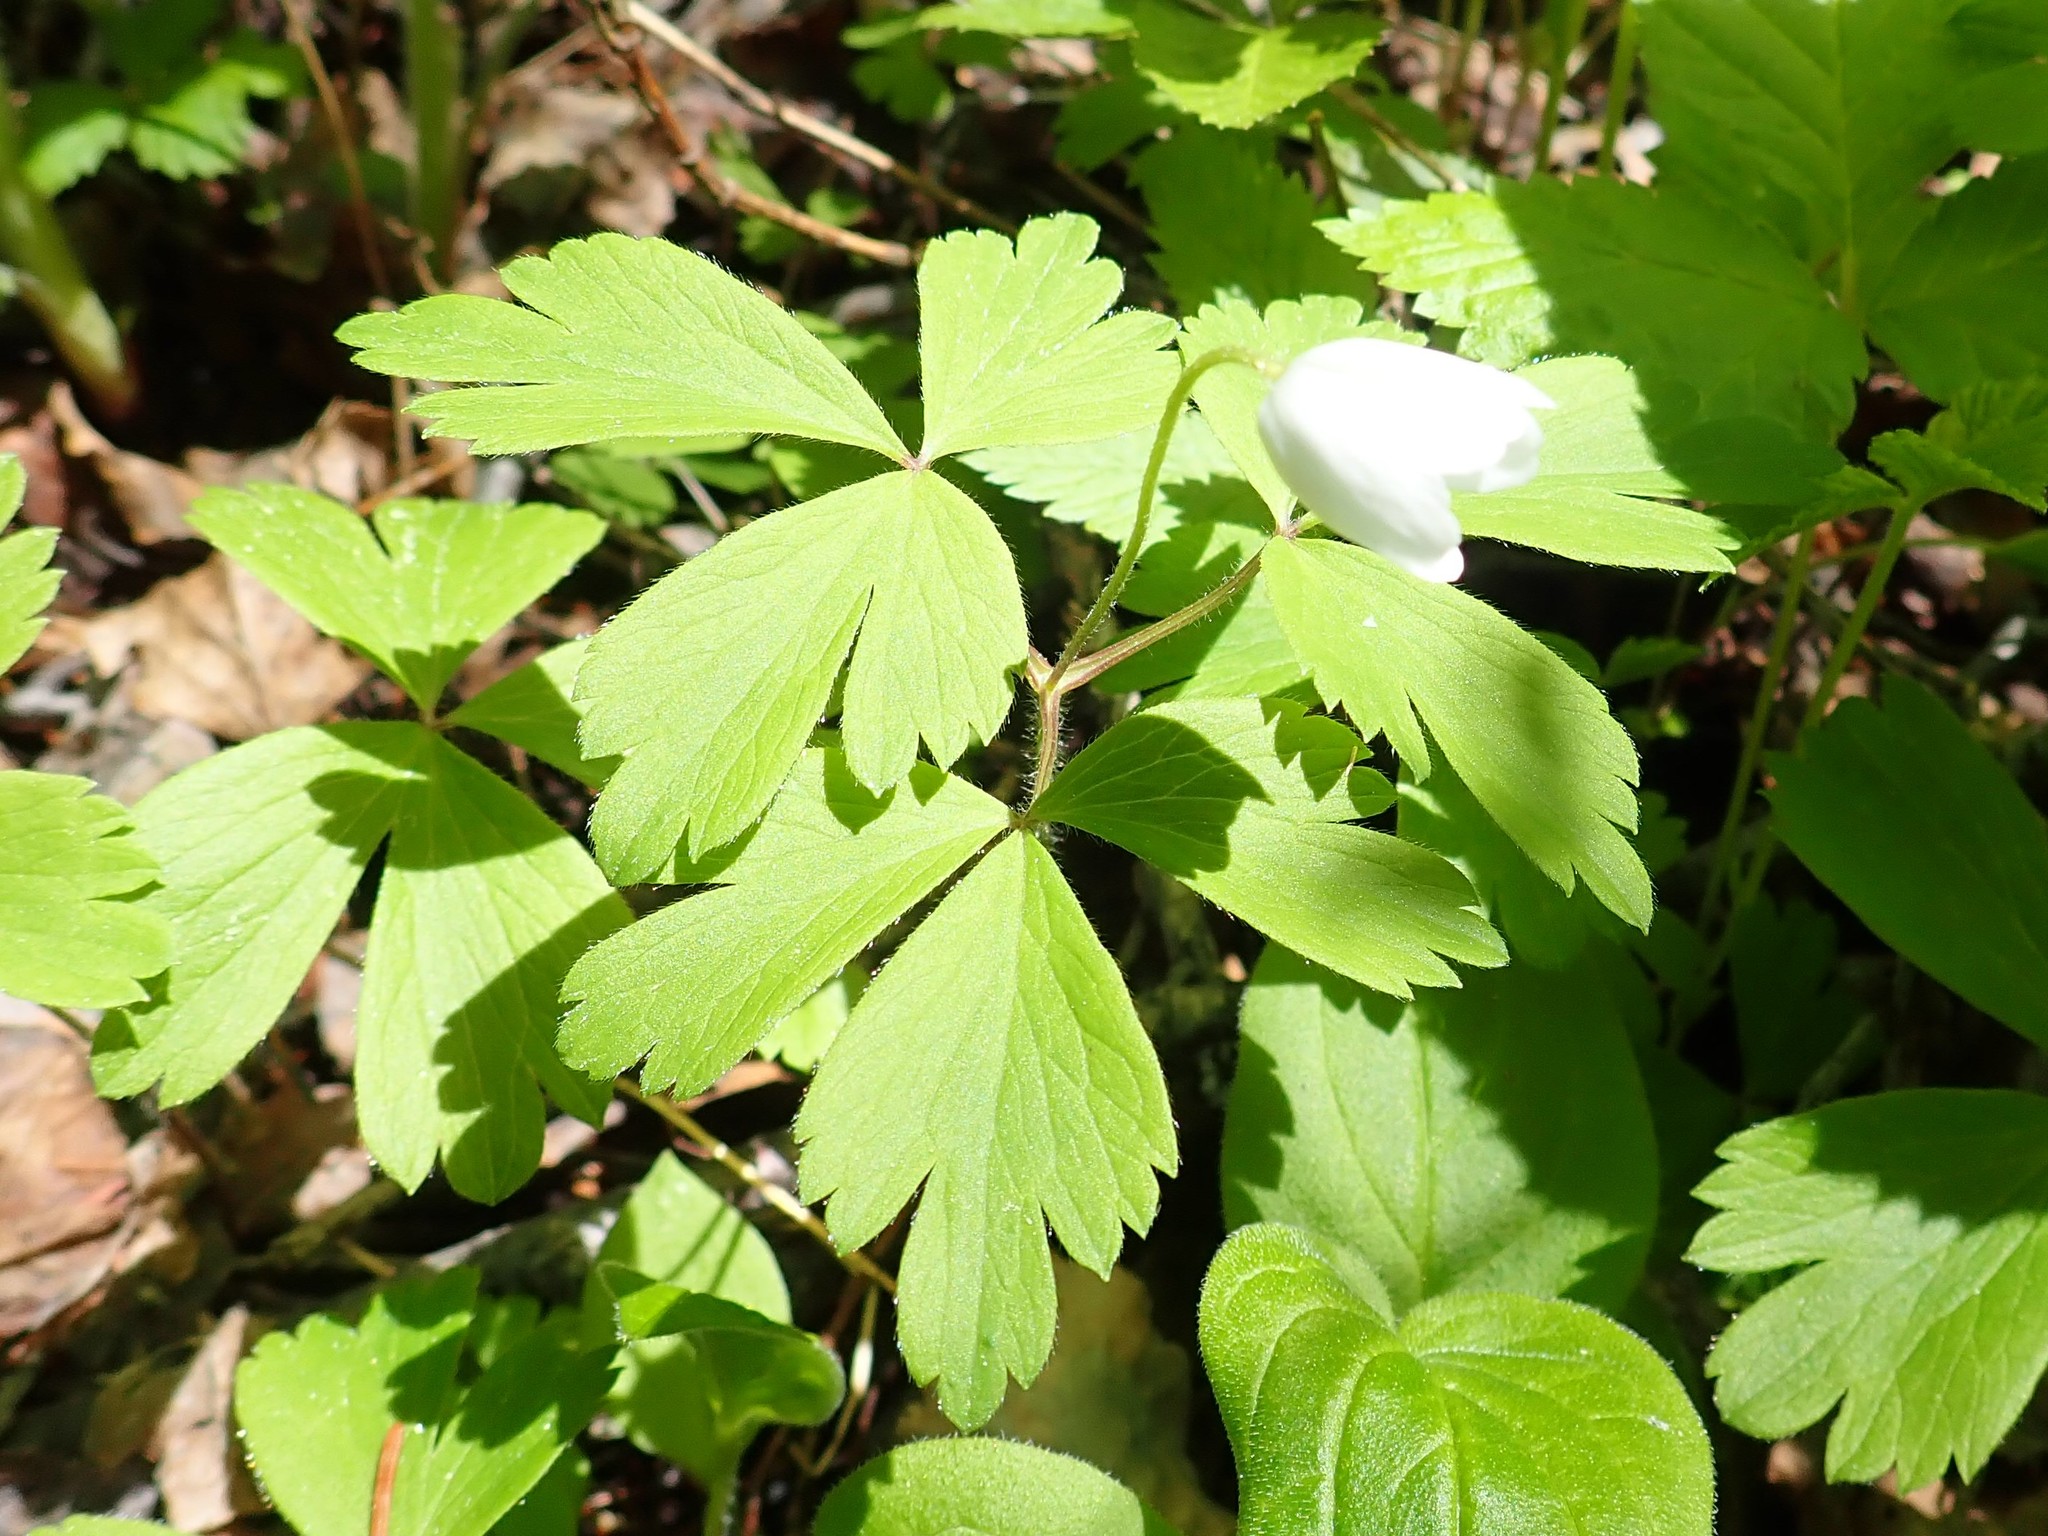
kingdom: Plantae
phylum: Tracheophyta
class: Magnoliopsida
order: Ranunculales
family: Ranunculaceae
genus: Anemone
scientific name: Anemone quinquefolia
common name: Wood anemone
